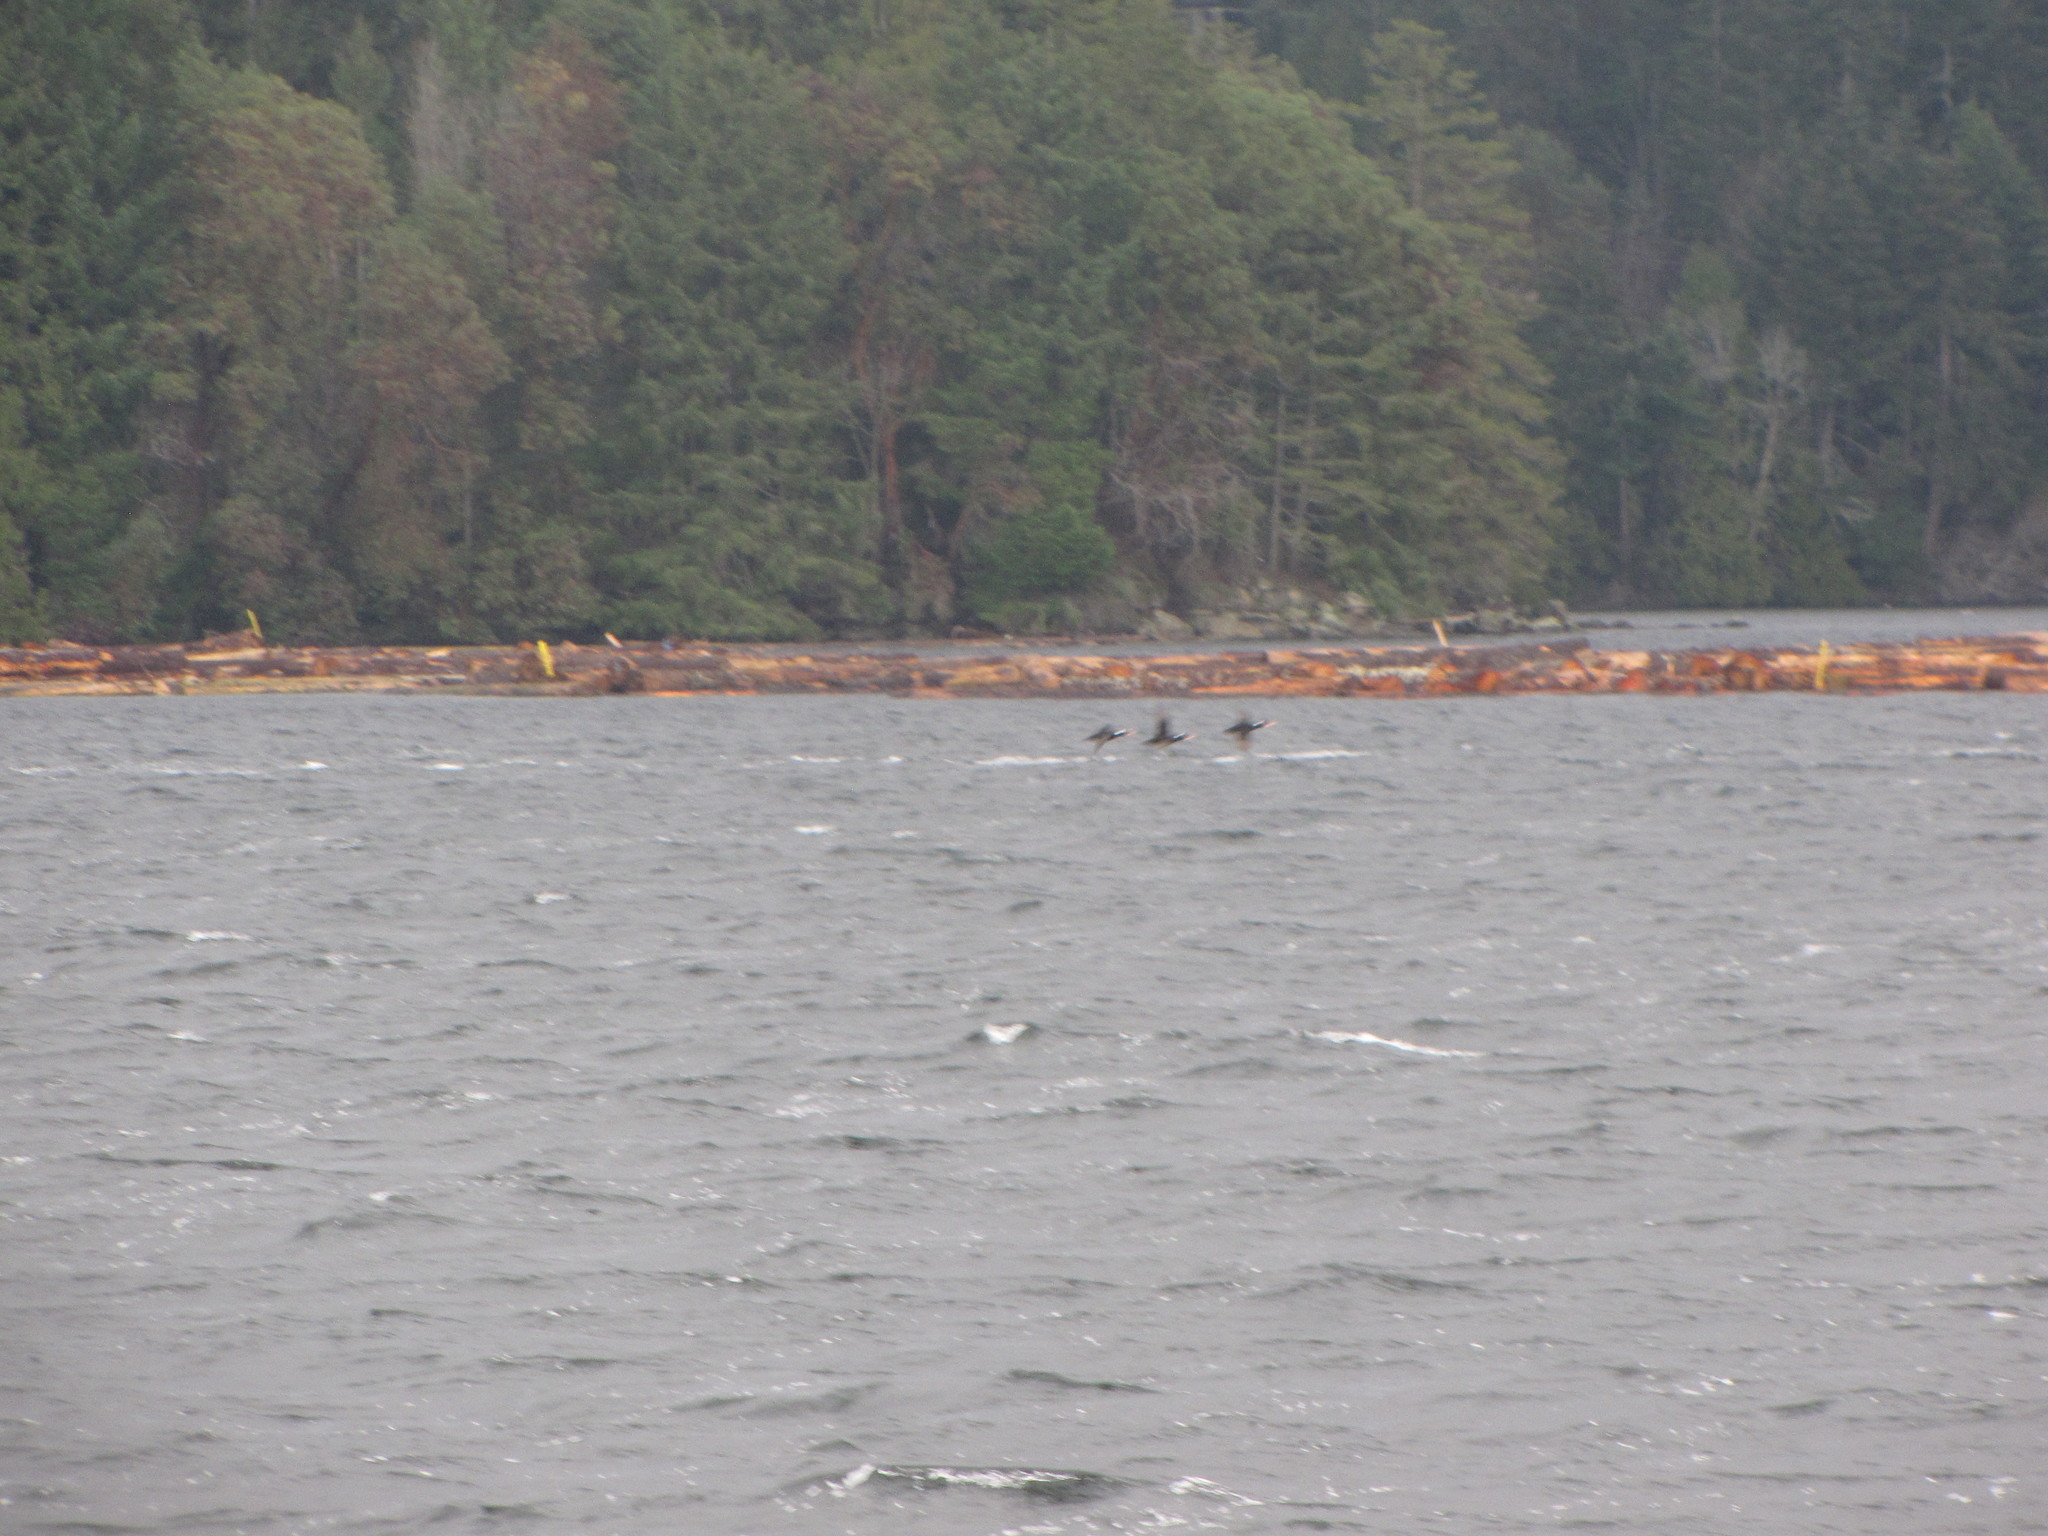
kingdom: Animalia
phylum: Chordata
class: Aves
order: Anseriformes
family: Anatidae
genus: Melanitta
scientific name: Melanitta perspicillata
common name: Surf scoter
